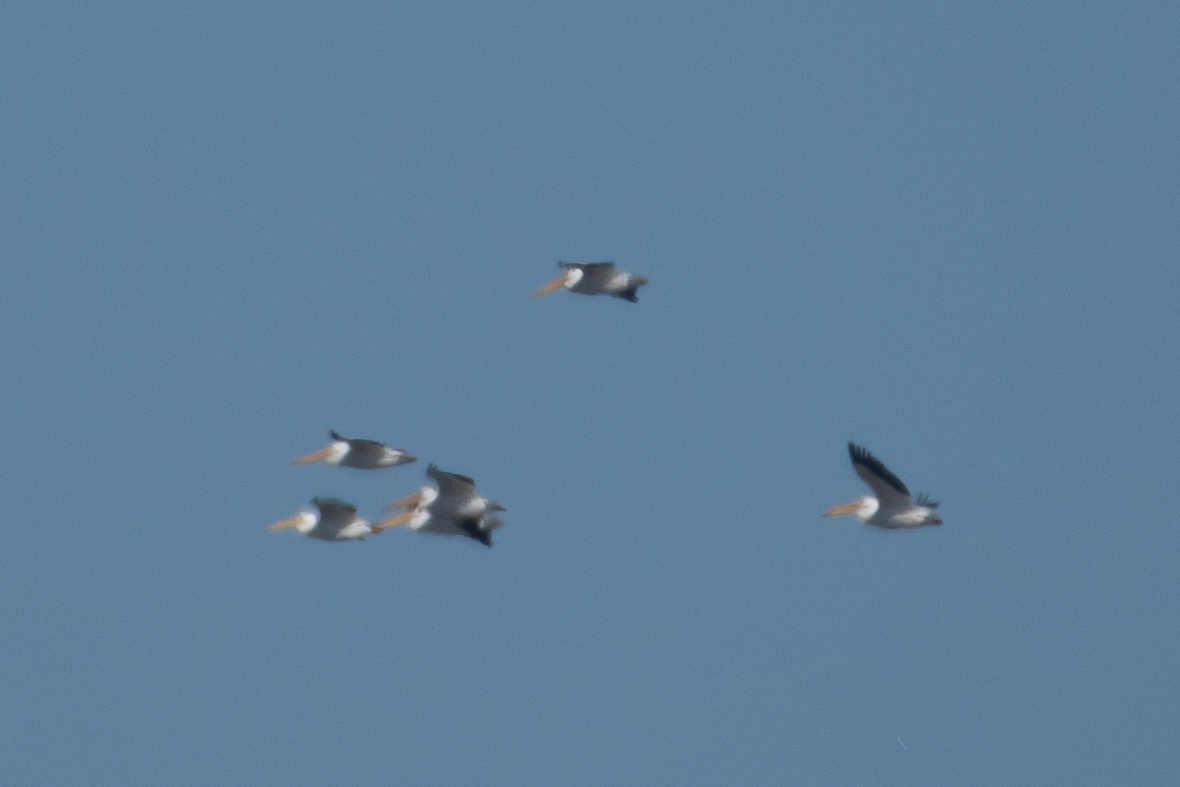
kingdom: Animalia
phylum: Chordata
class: Aves
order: Pelecaniformes
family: Pelecanidae
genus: Pelecanus
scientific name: Pelecanus erythrorhynchos
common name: American white pelican
